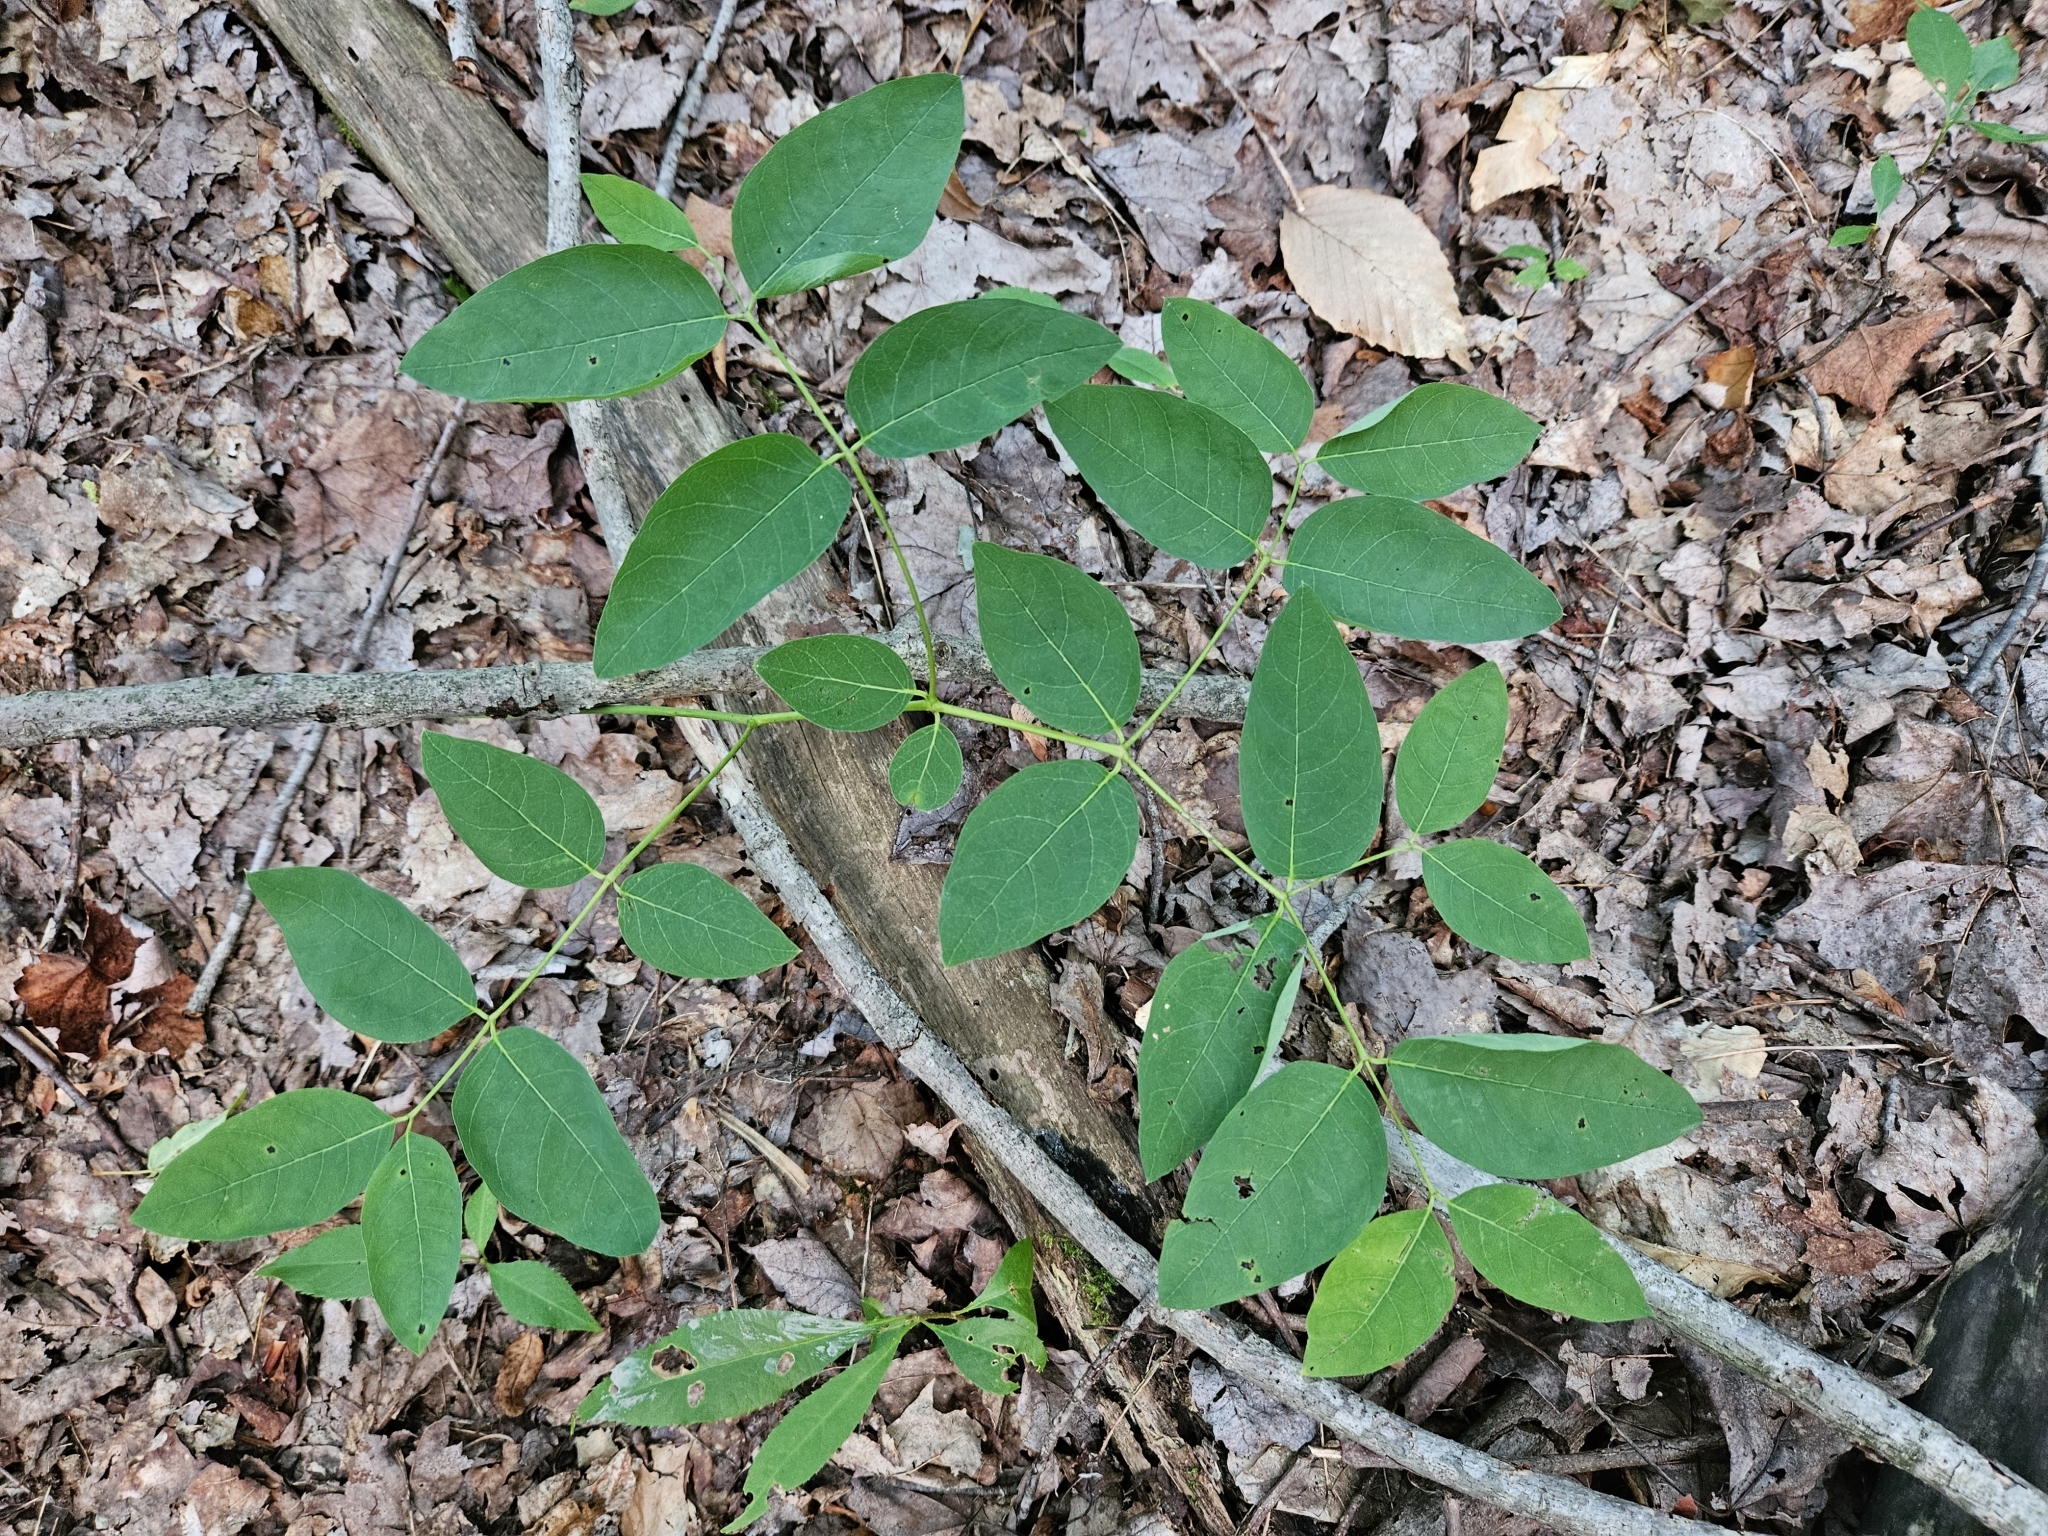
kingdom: Plantae
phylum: Tracheophyta
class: Magnoliopsida
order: Gentianales
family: Apocynaceae
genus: Apocynum
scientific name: Apocynum androsaemifolium
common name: Spreading dogbane
